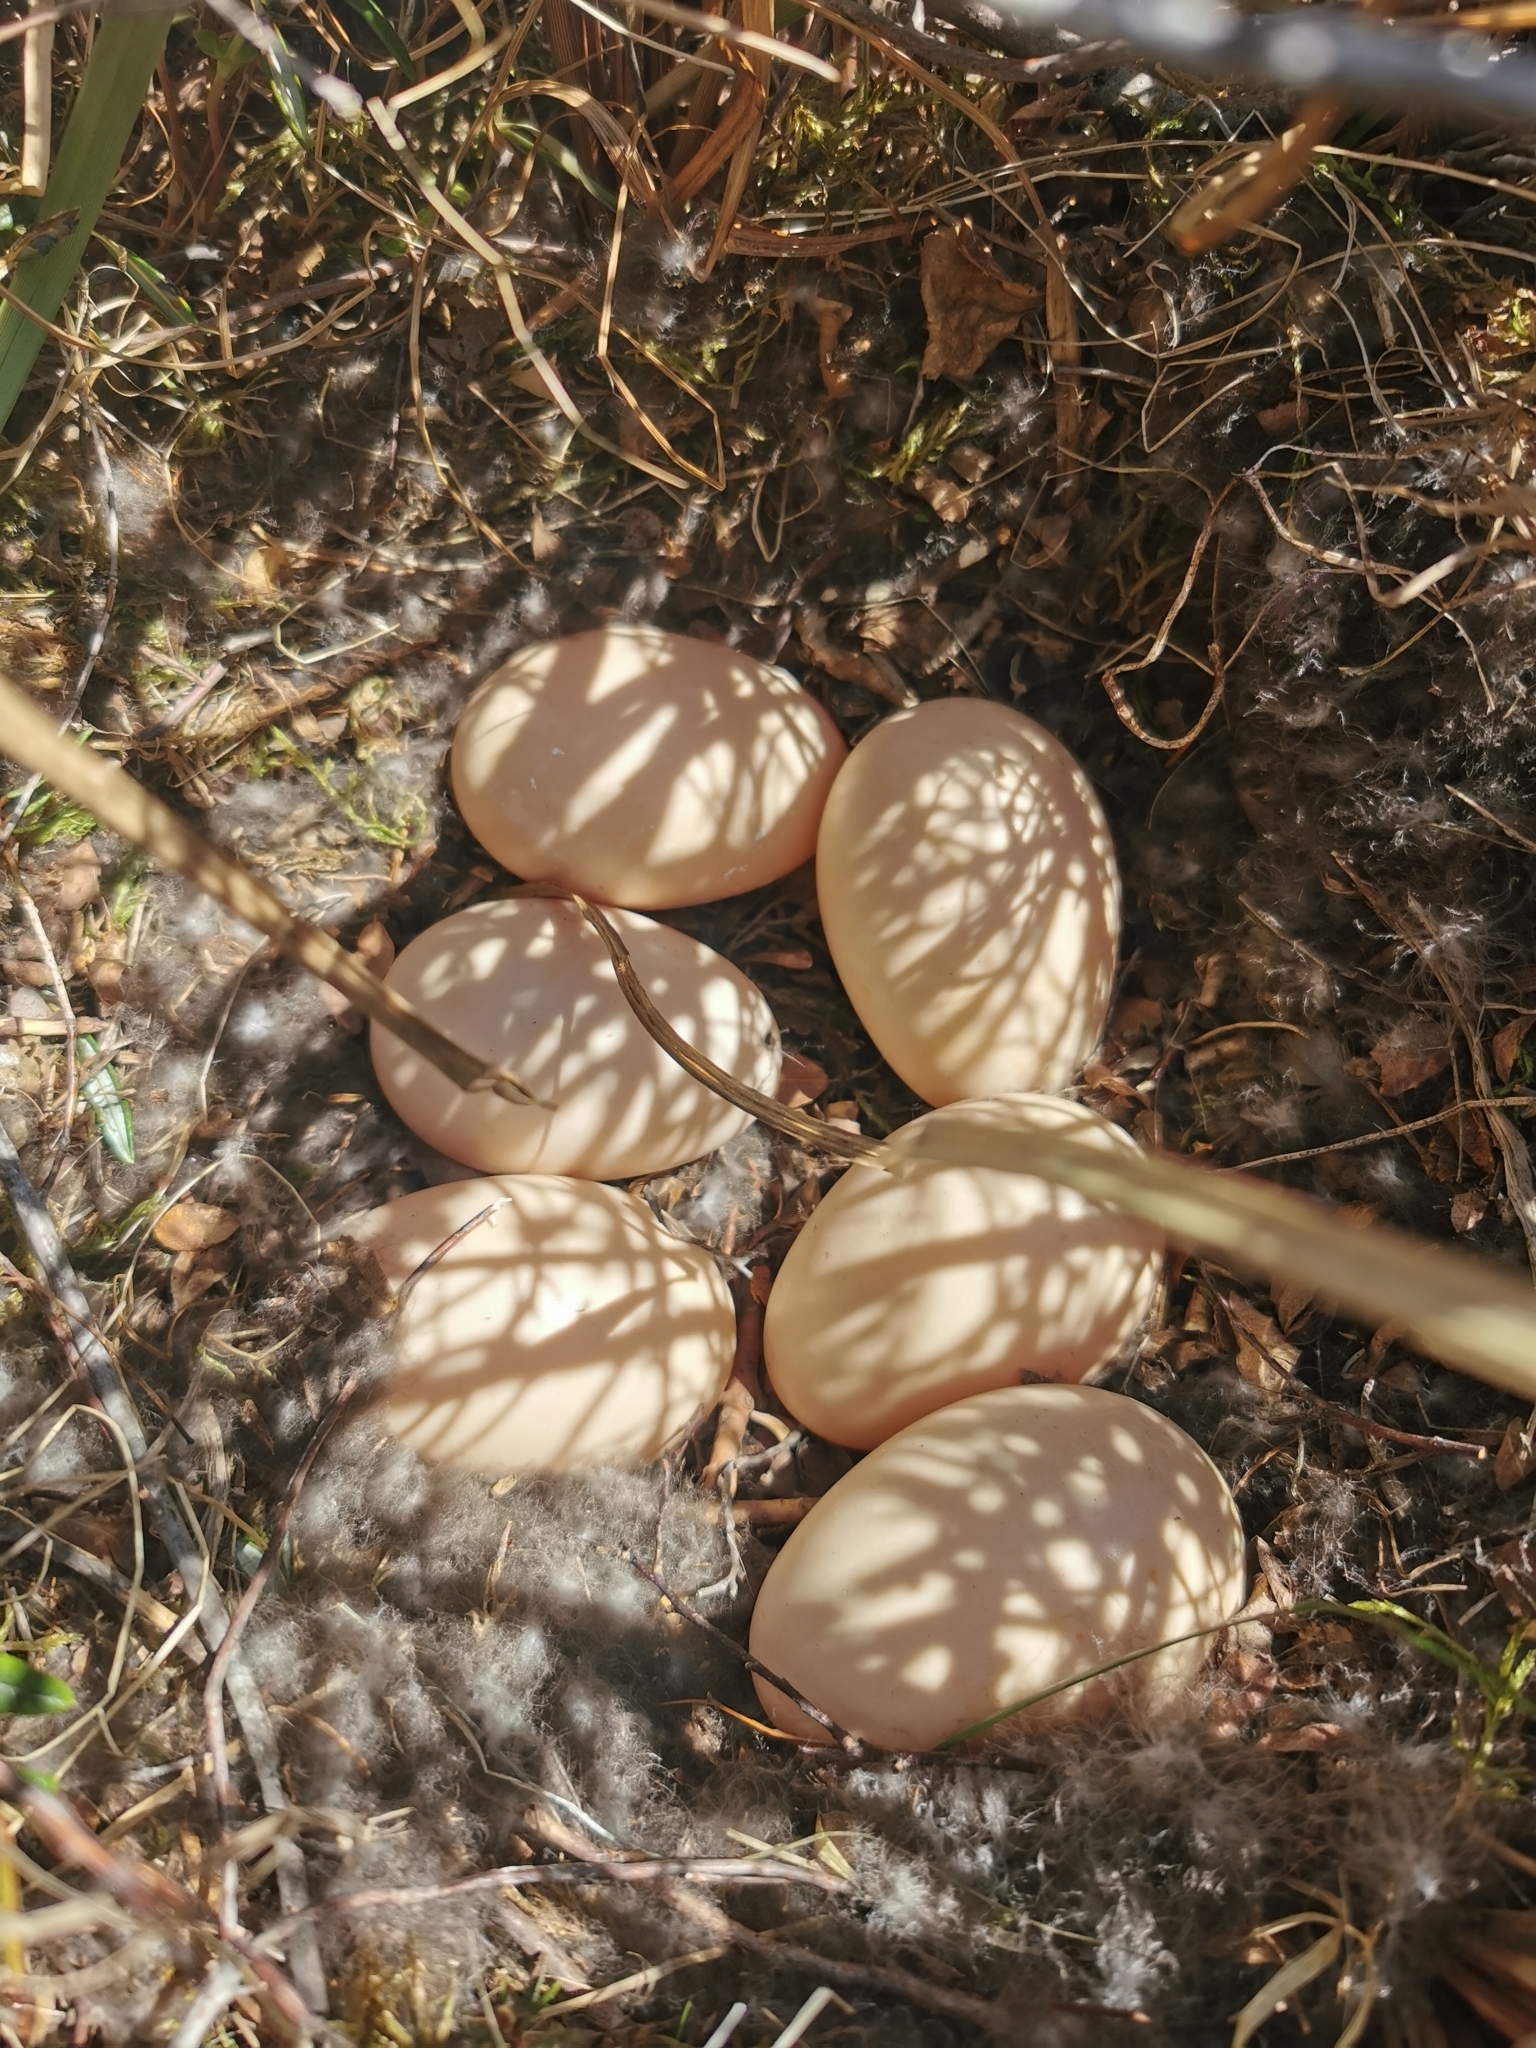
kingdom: Animalia
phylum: Chordata
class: Aves
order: Anseriformes
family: Anatidae
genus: Melanitta
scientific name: Melanitta americana
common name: Black scoter
